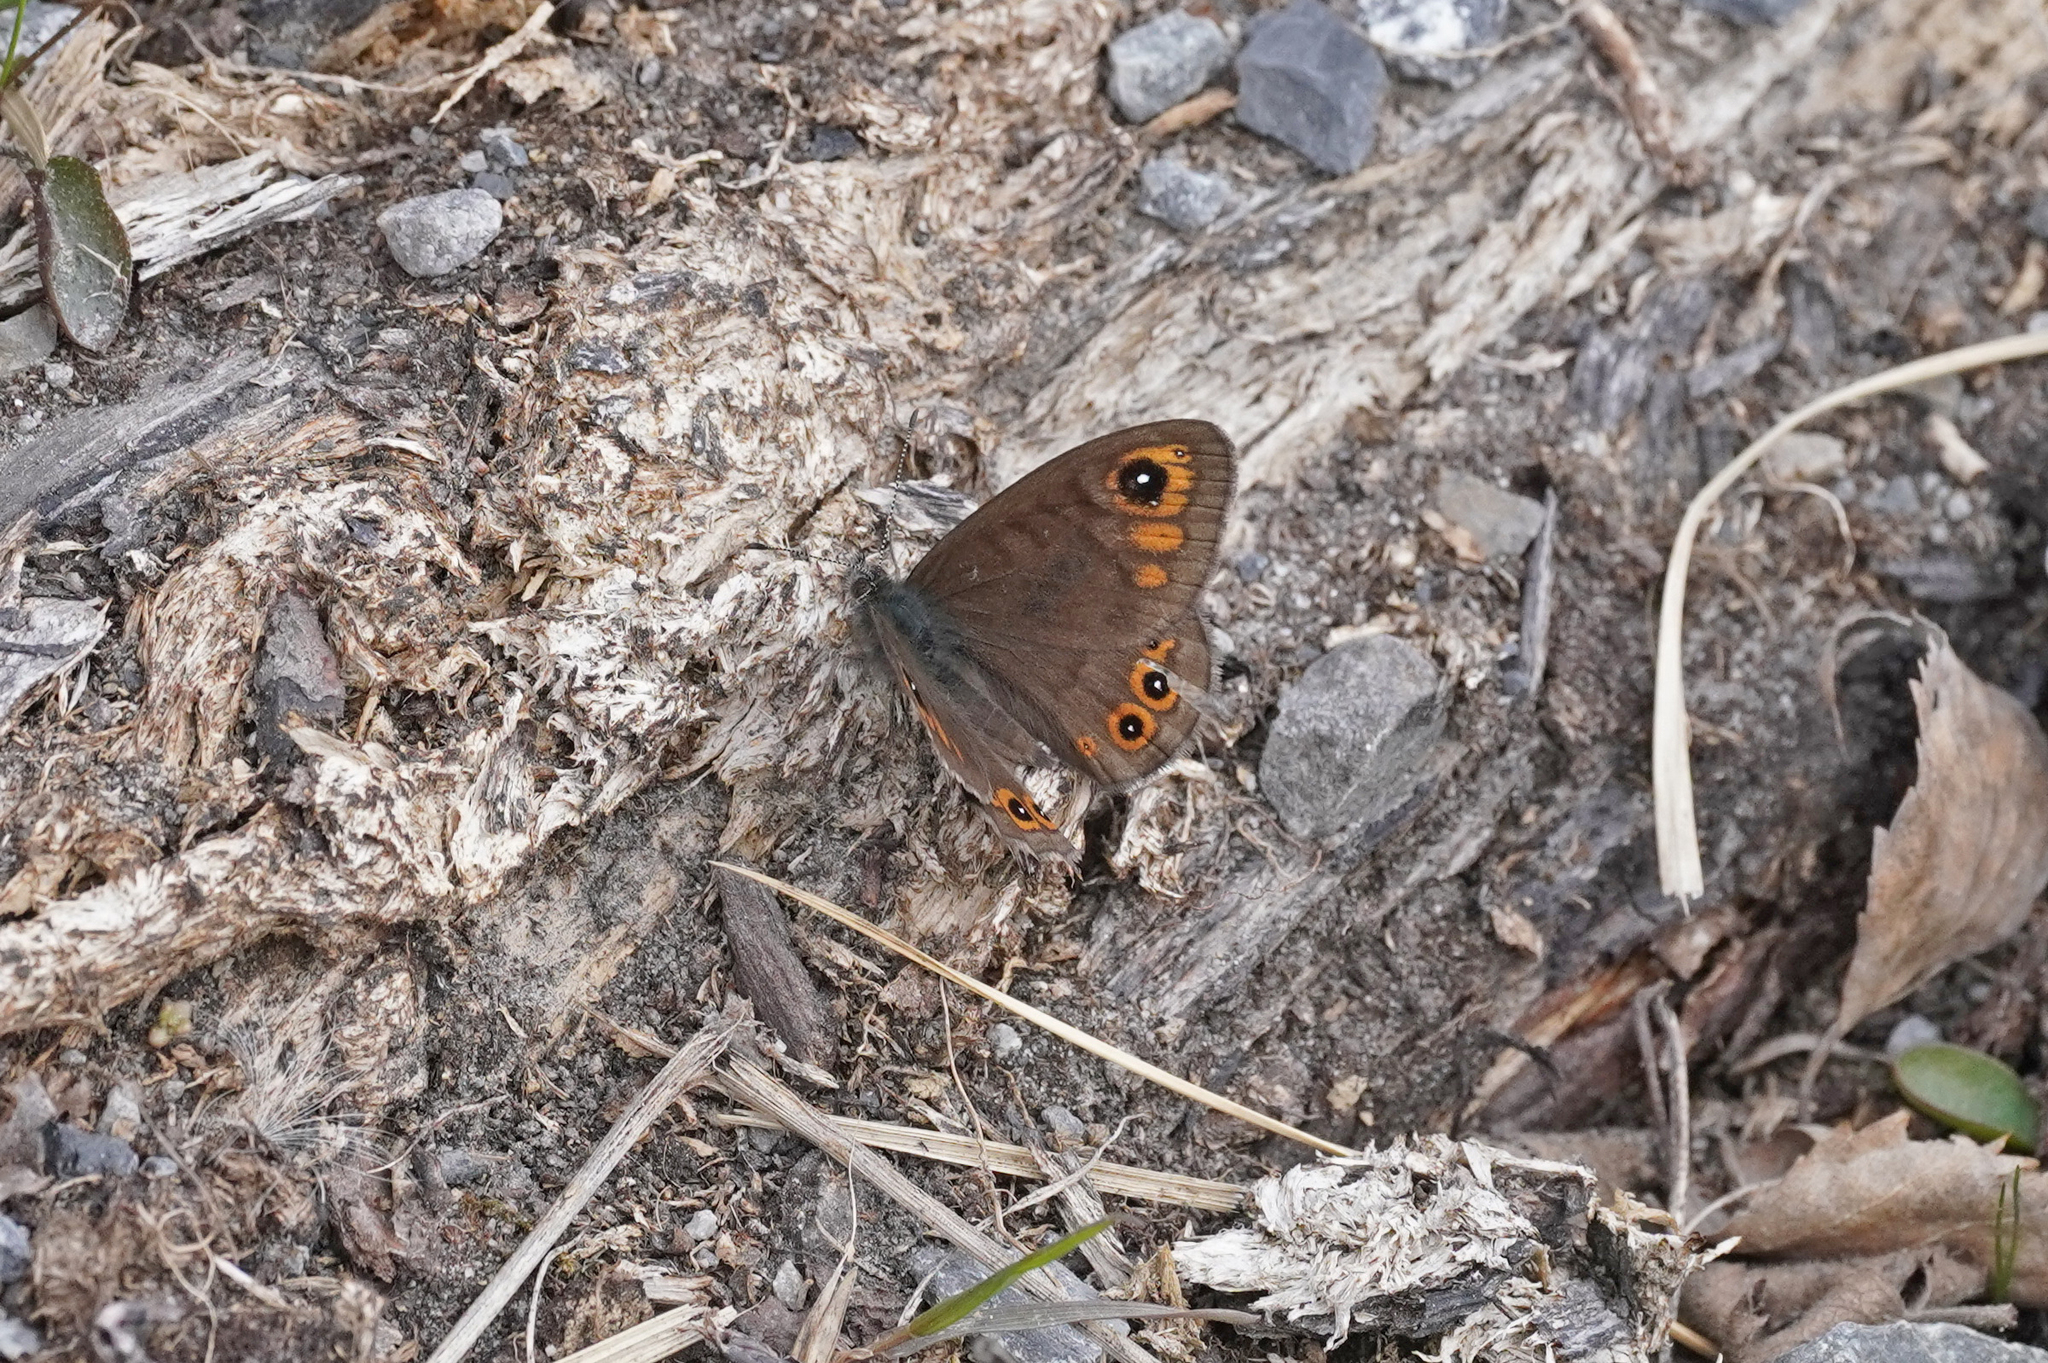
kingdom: Animalia
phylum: Arthropoda
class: Insecta
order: Lepidoptera
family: Nymphalidae
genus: Pararge
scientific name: Pararge petropolitana
